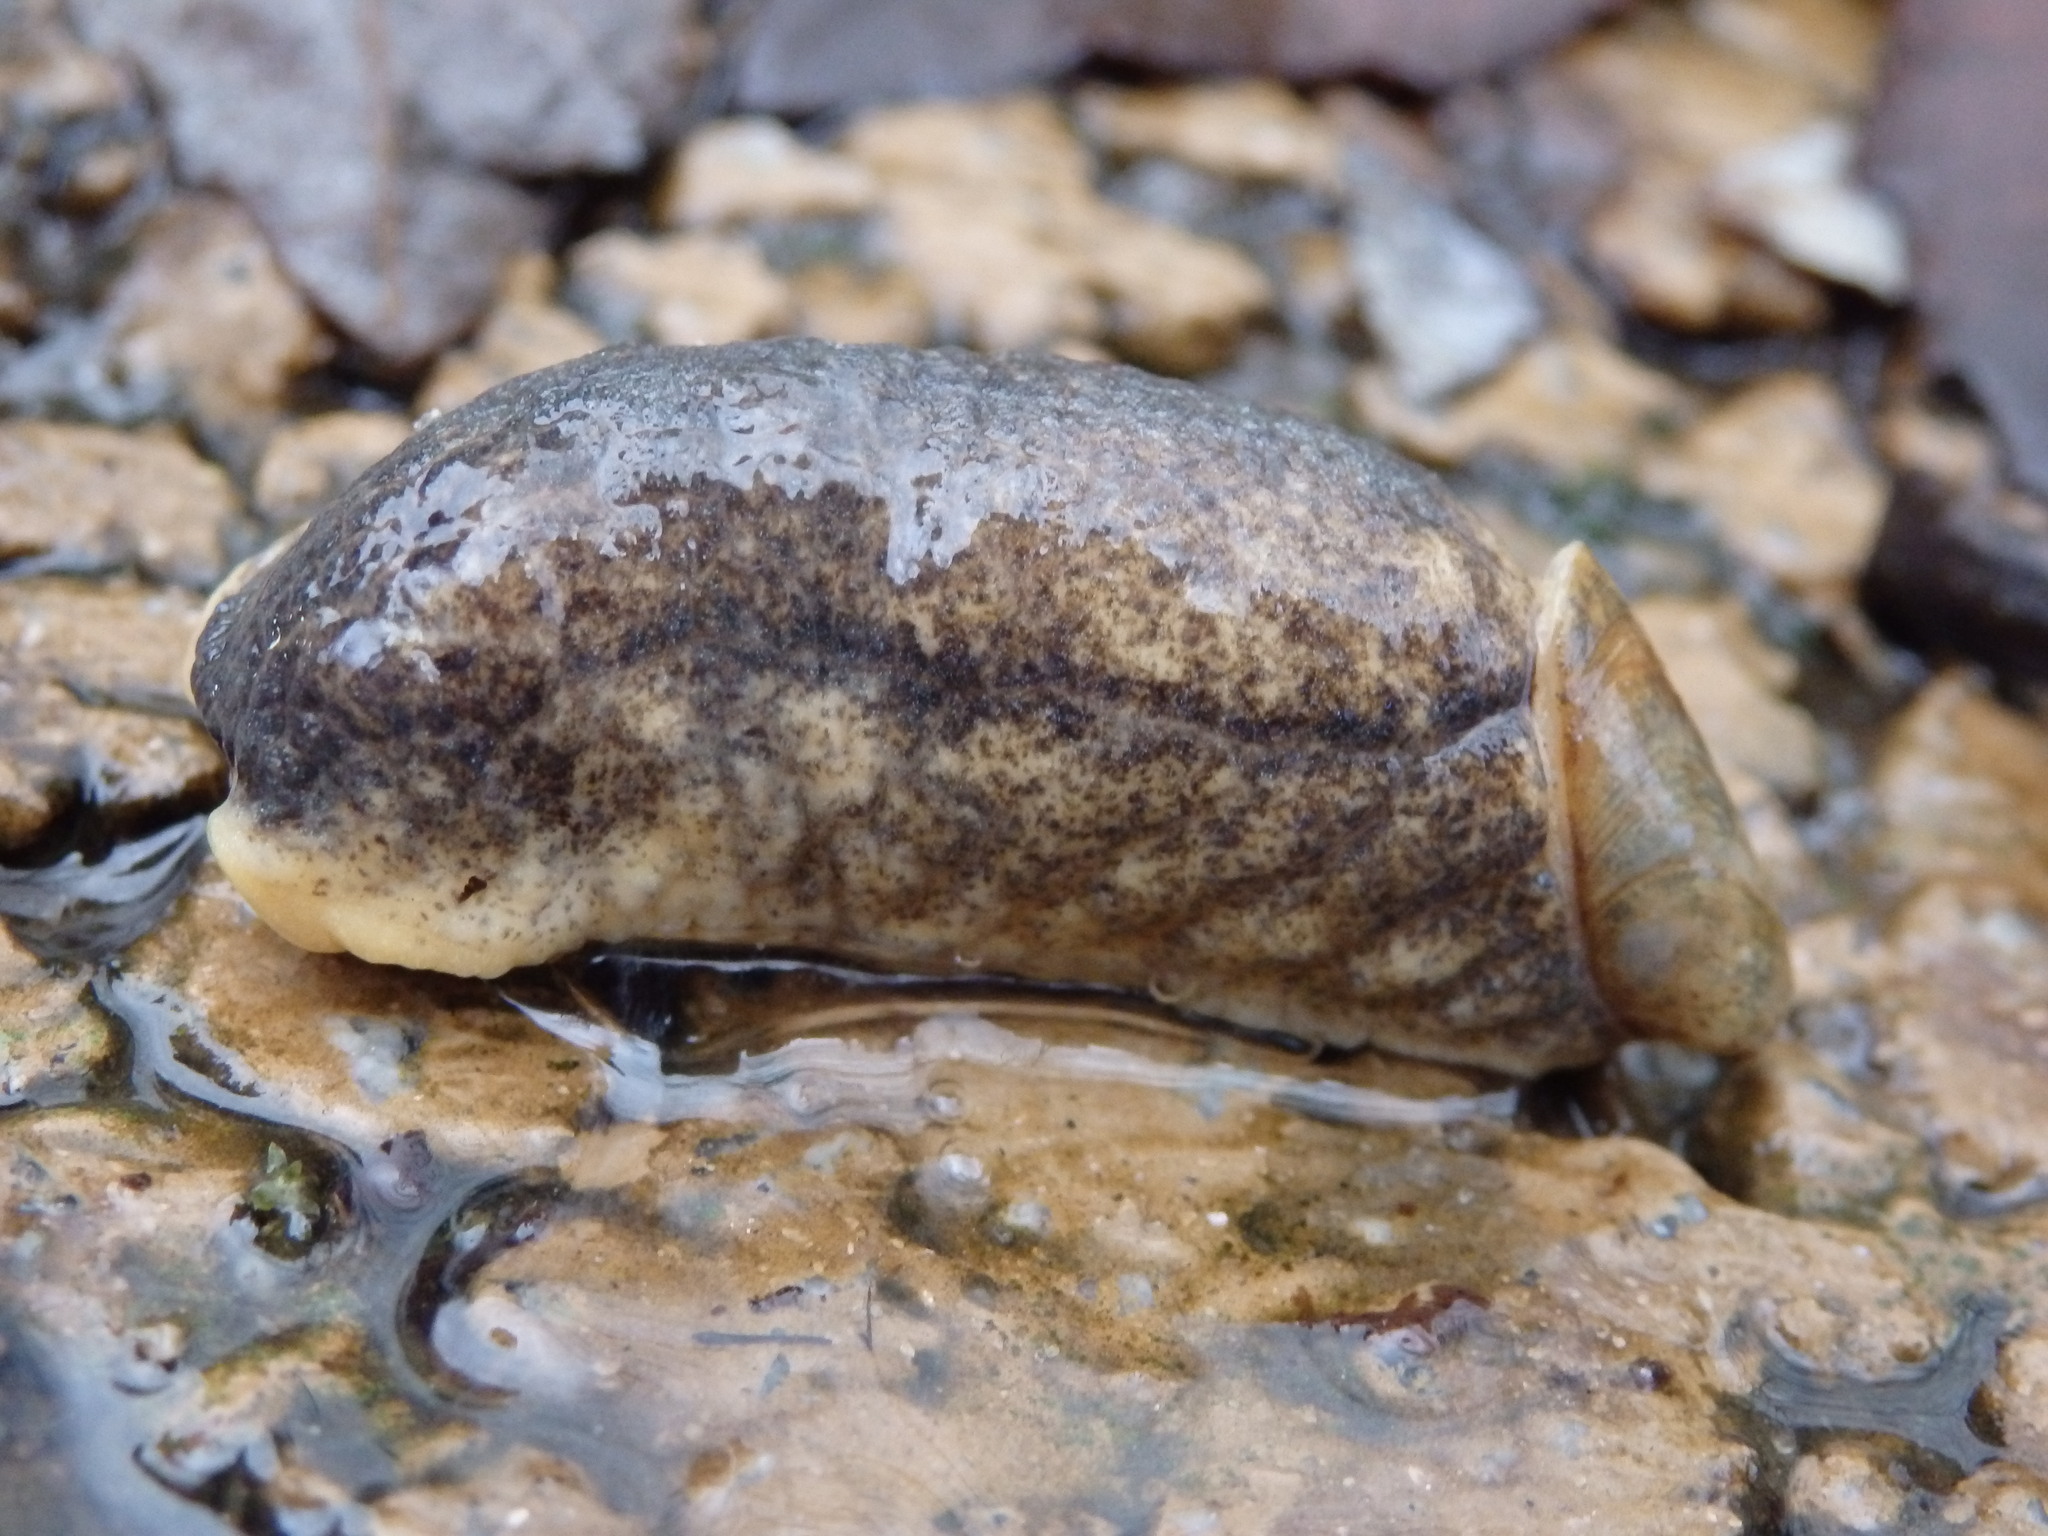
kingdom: Animalia
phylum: Mollusca
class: Gastropoda
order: Stylommatophora
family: Testacellidae
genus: Testacella
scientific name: Testacella maugei
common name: Mauge's slug
